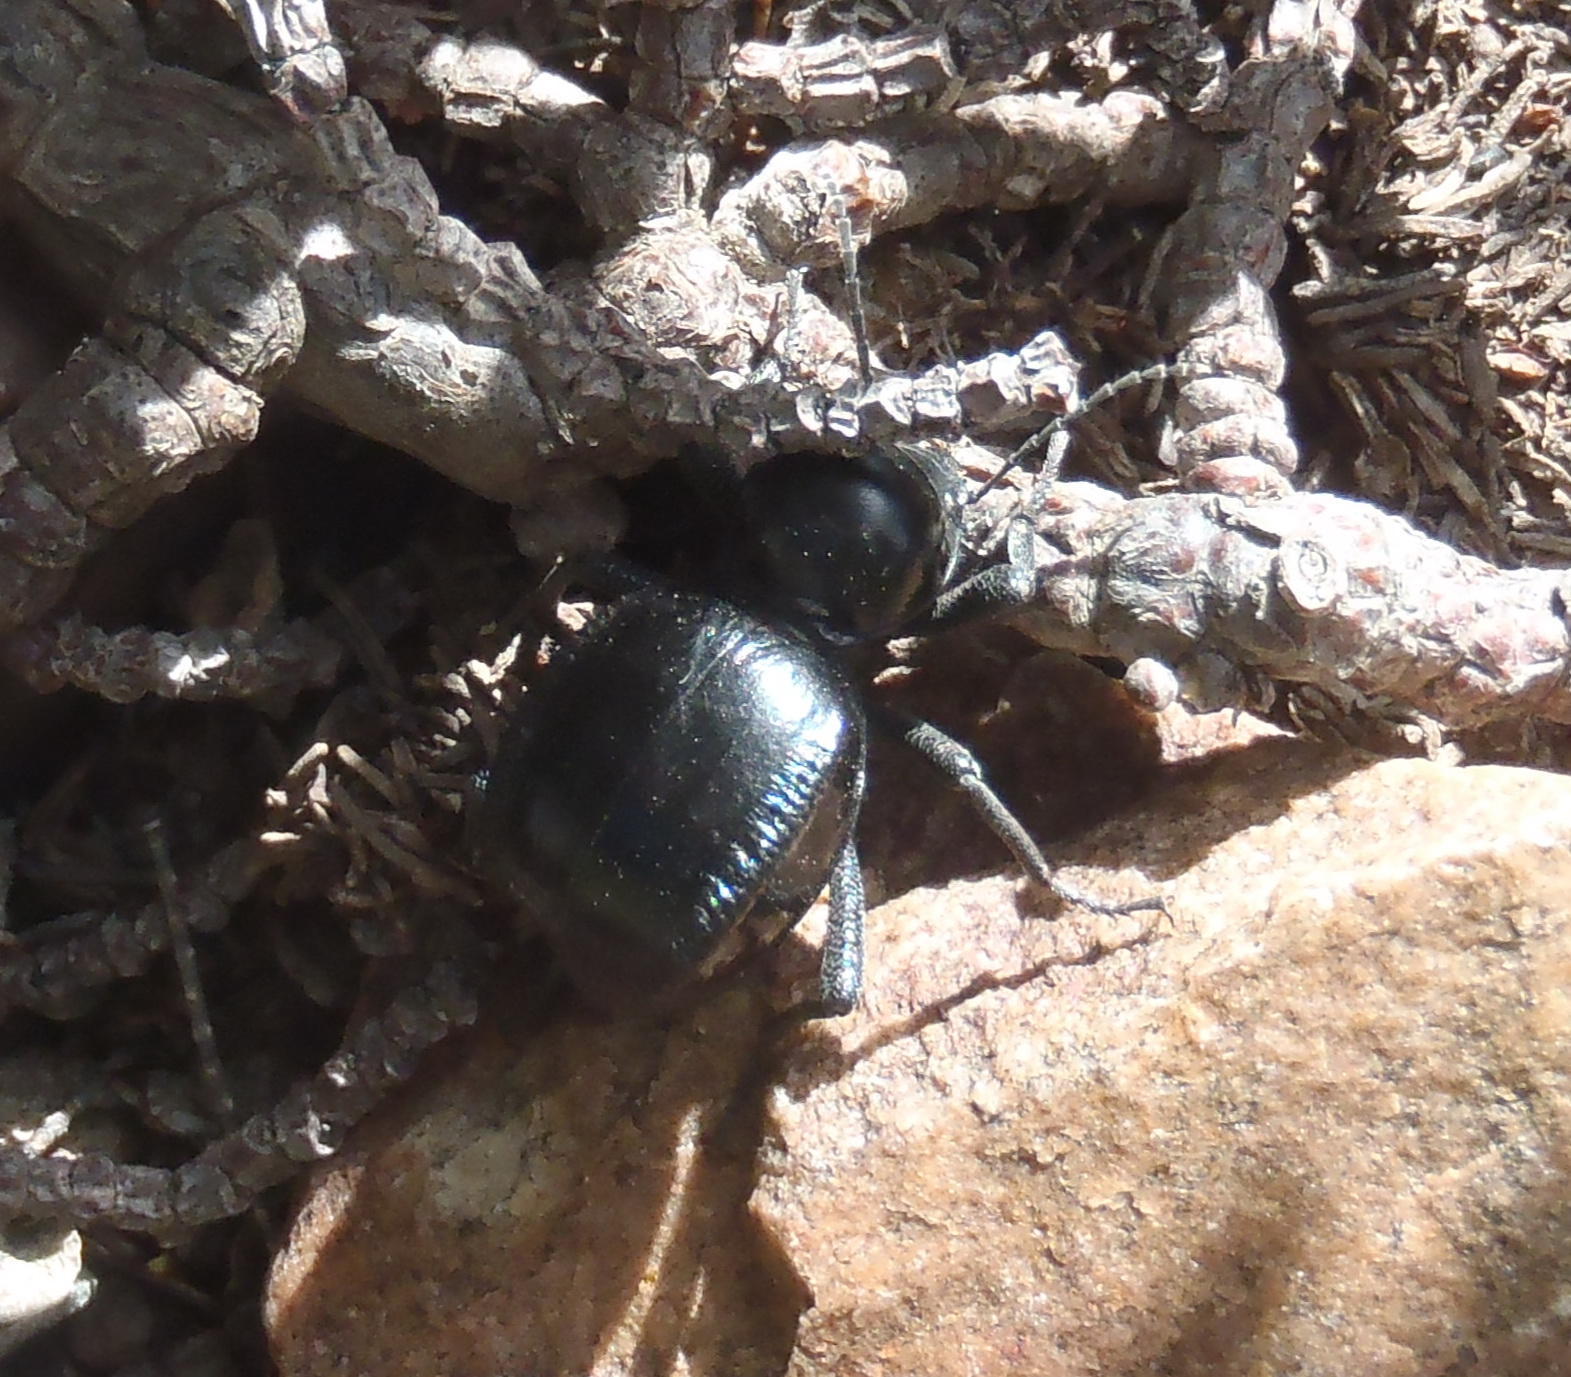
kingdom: Animalia
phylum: Arthropoda
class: Insecta
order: Coleoptera
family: Tenebrionidae
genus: Moluris
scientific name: Moluris gibba
